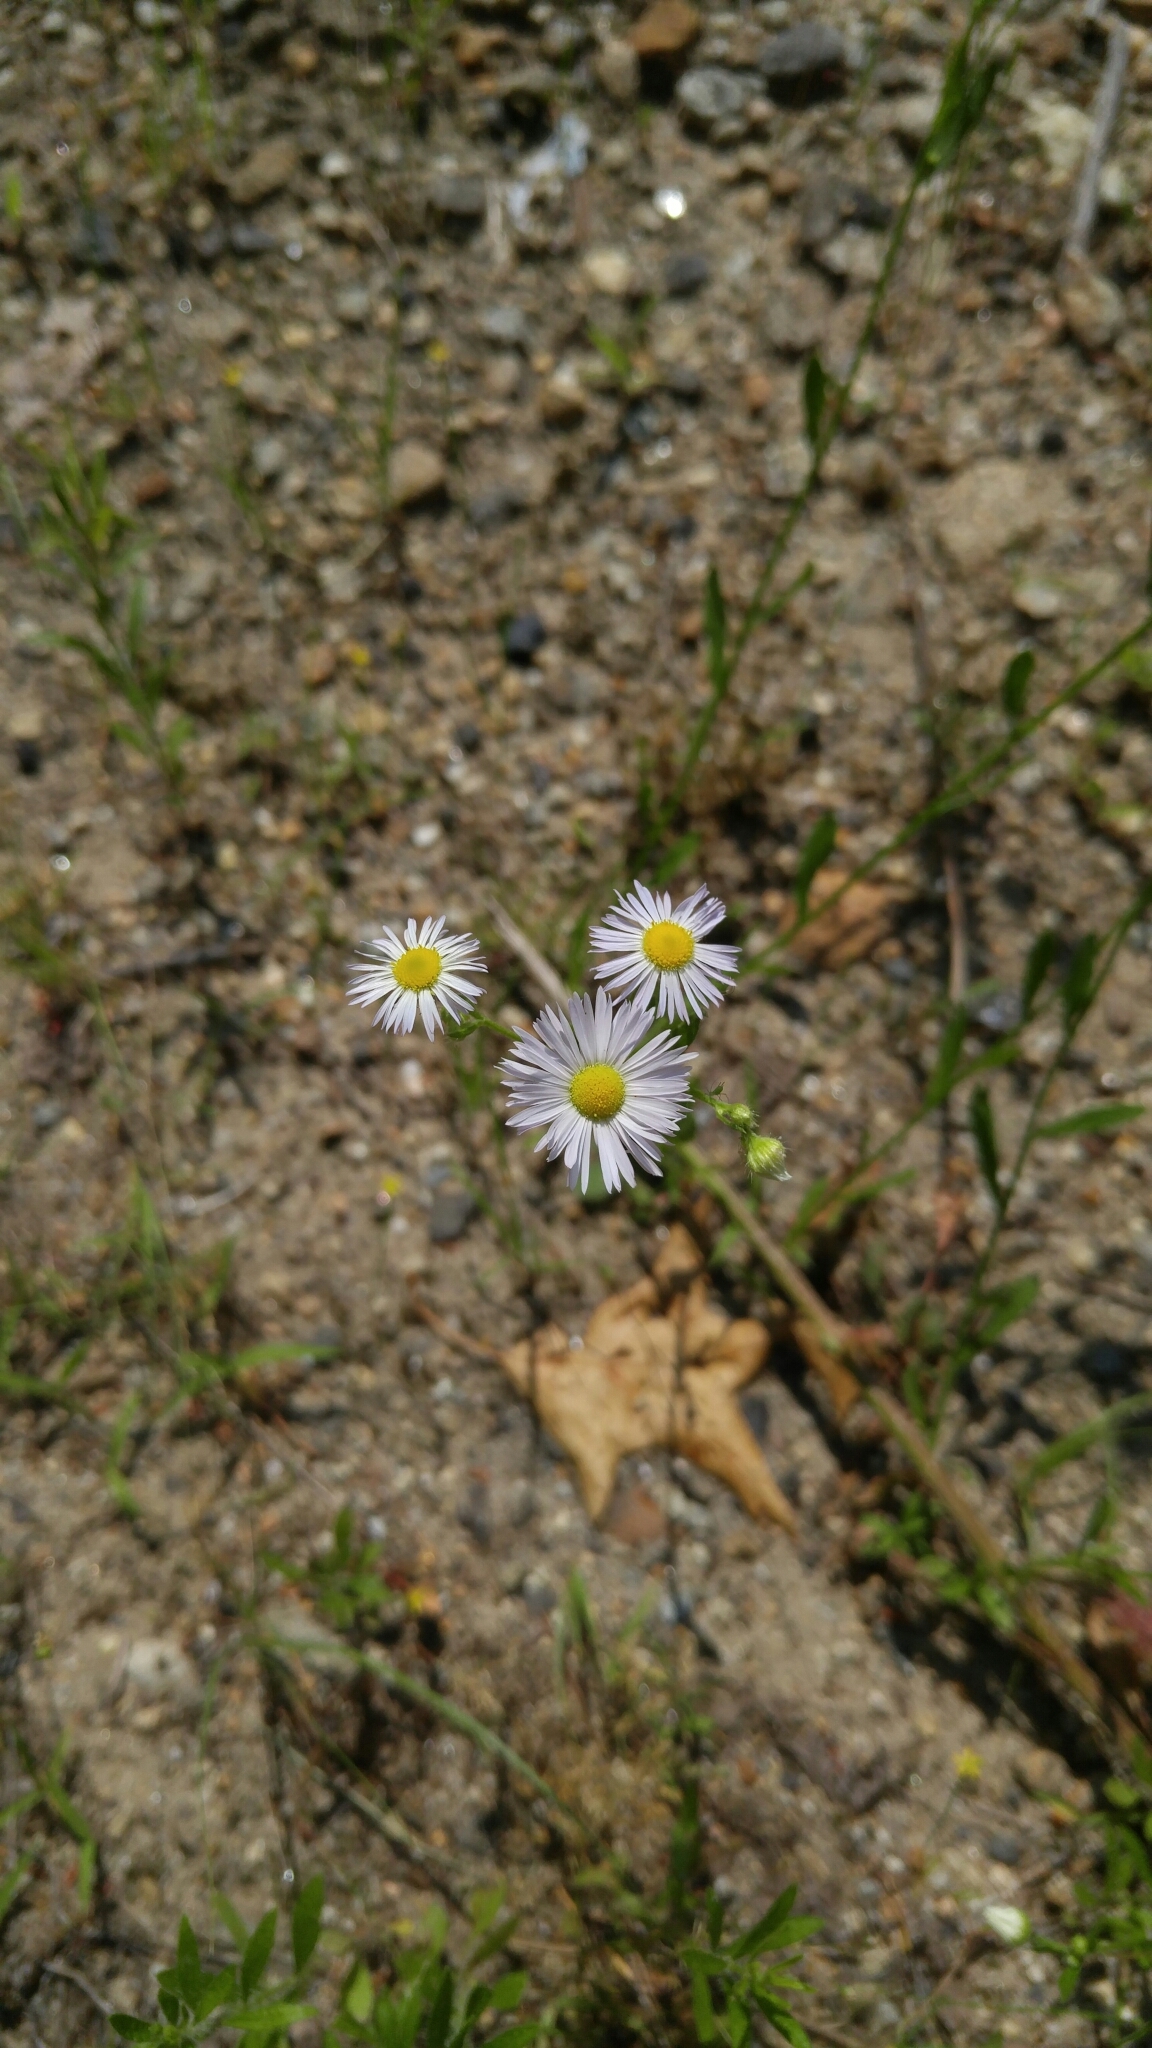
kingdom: Plantae
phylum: Tracheophyta
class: Magnoliopsida
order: Asterales
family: Asteraceae
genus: Erigeron
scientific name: Erigeron strigosus
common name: Common eastern fleabane
